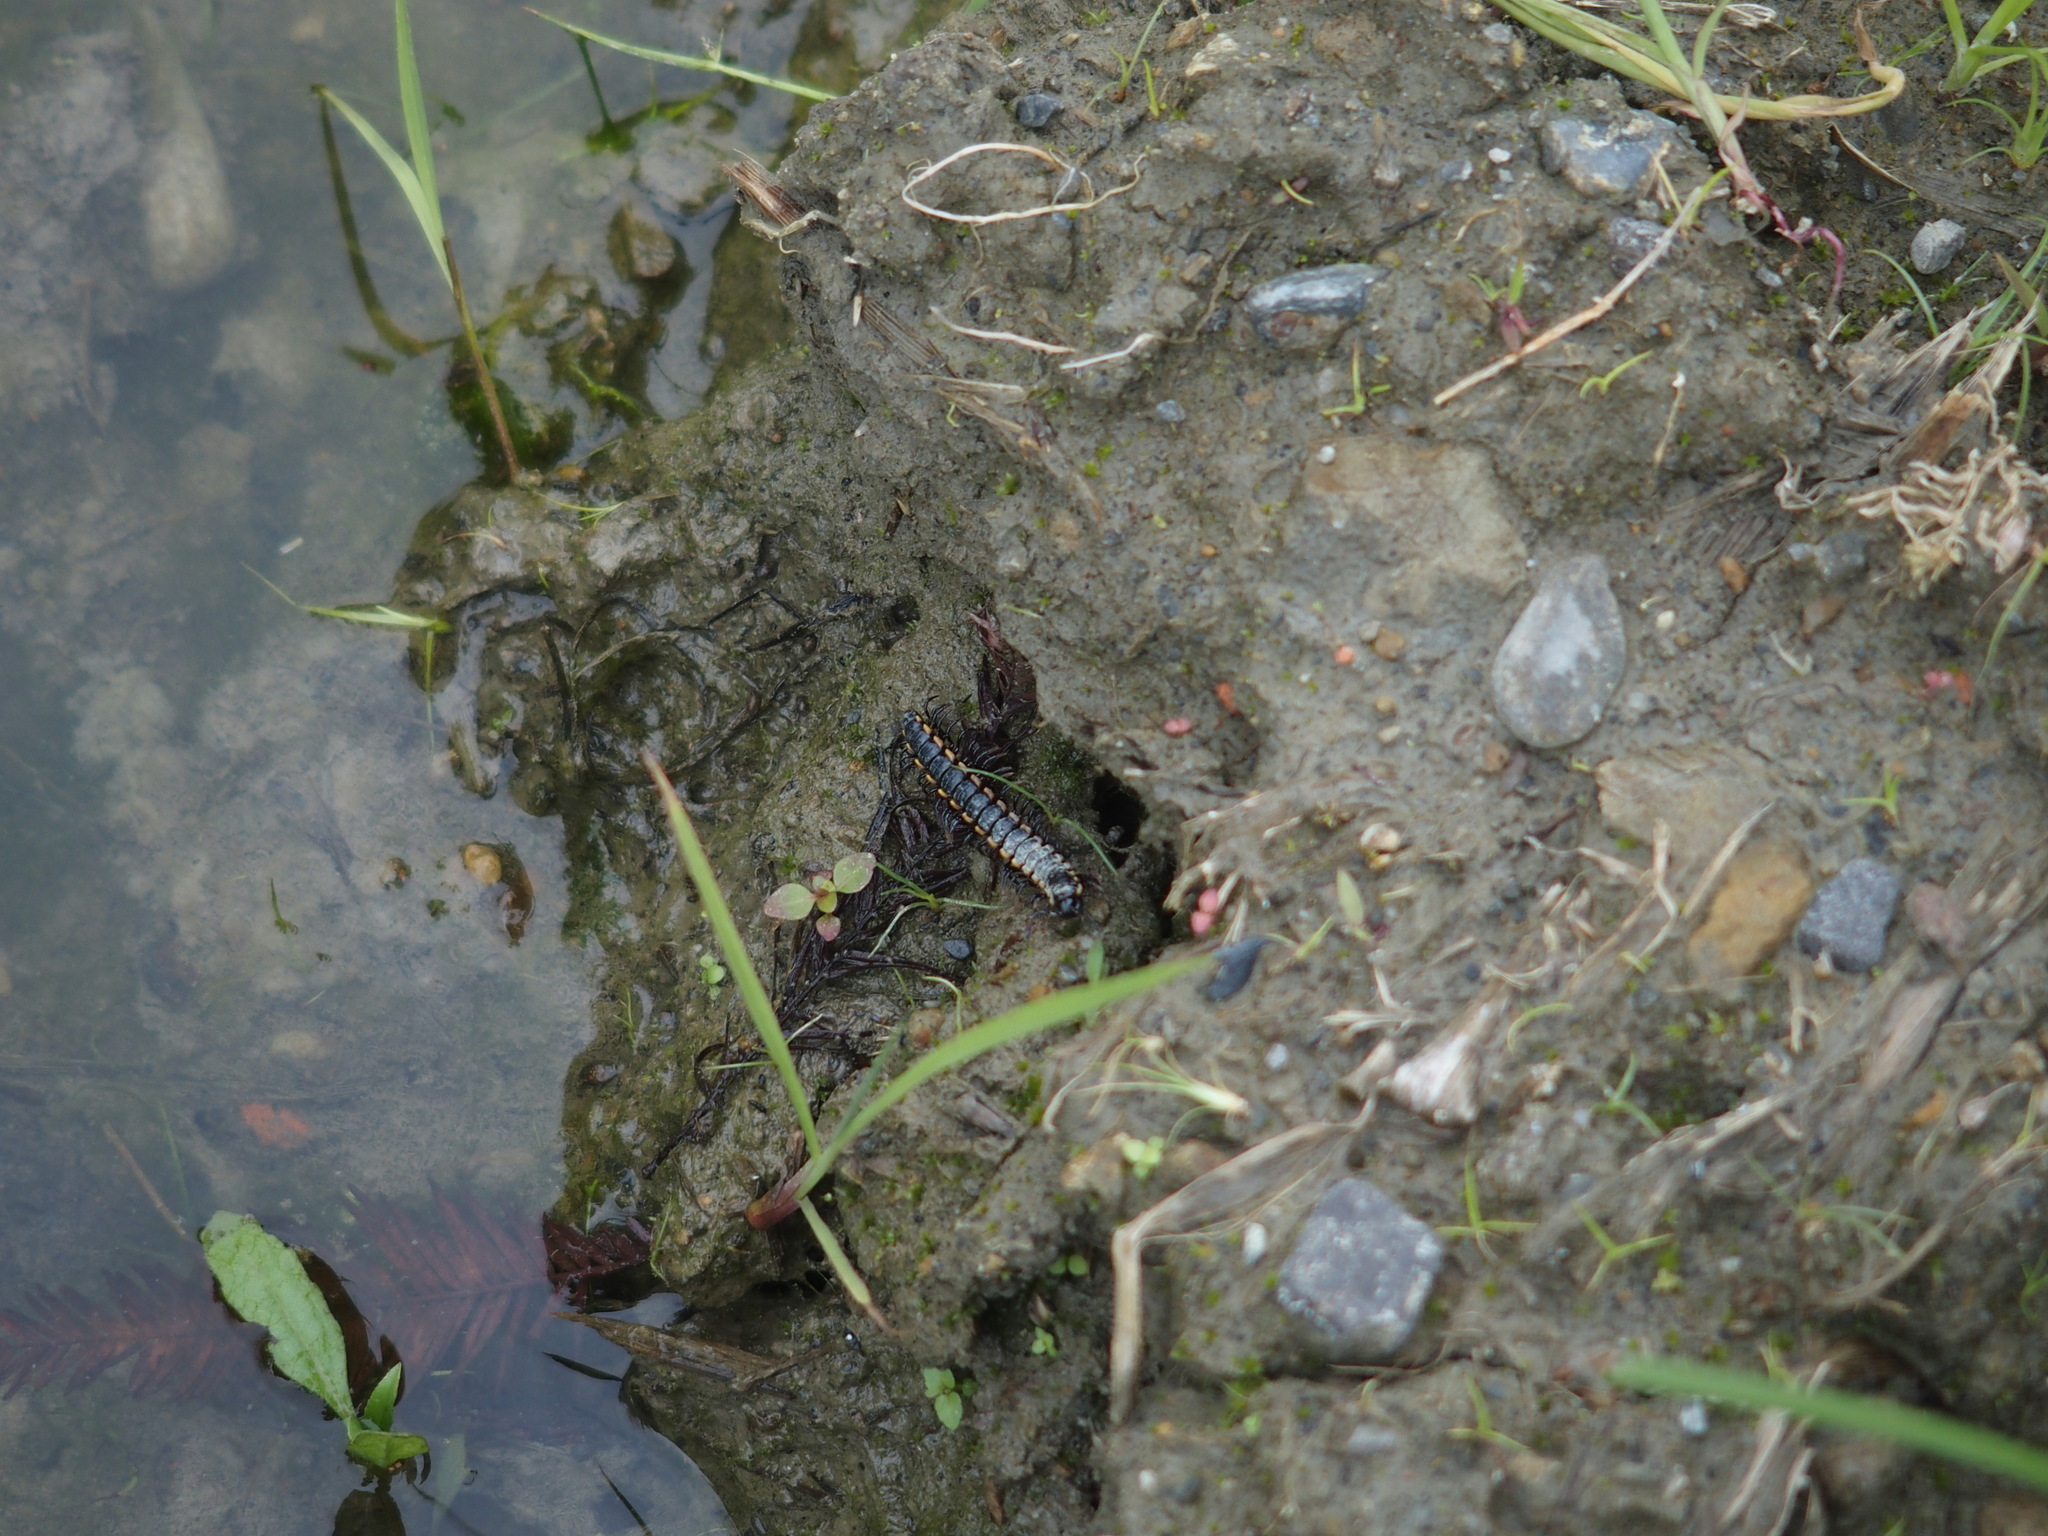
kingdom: Animalia
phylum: Arthropoda
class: Diplopoda
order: Polydesmida
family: Paradoxosomatidae
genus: Orthomorphella
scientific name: Orthomorphella pekuensis
